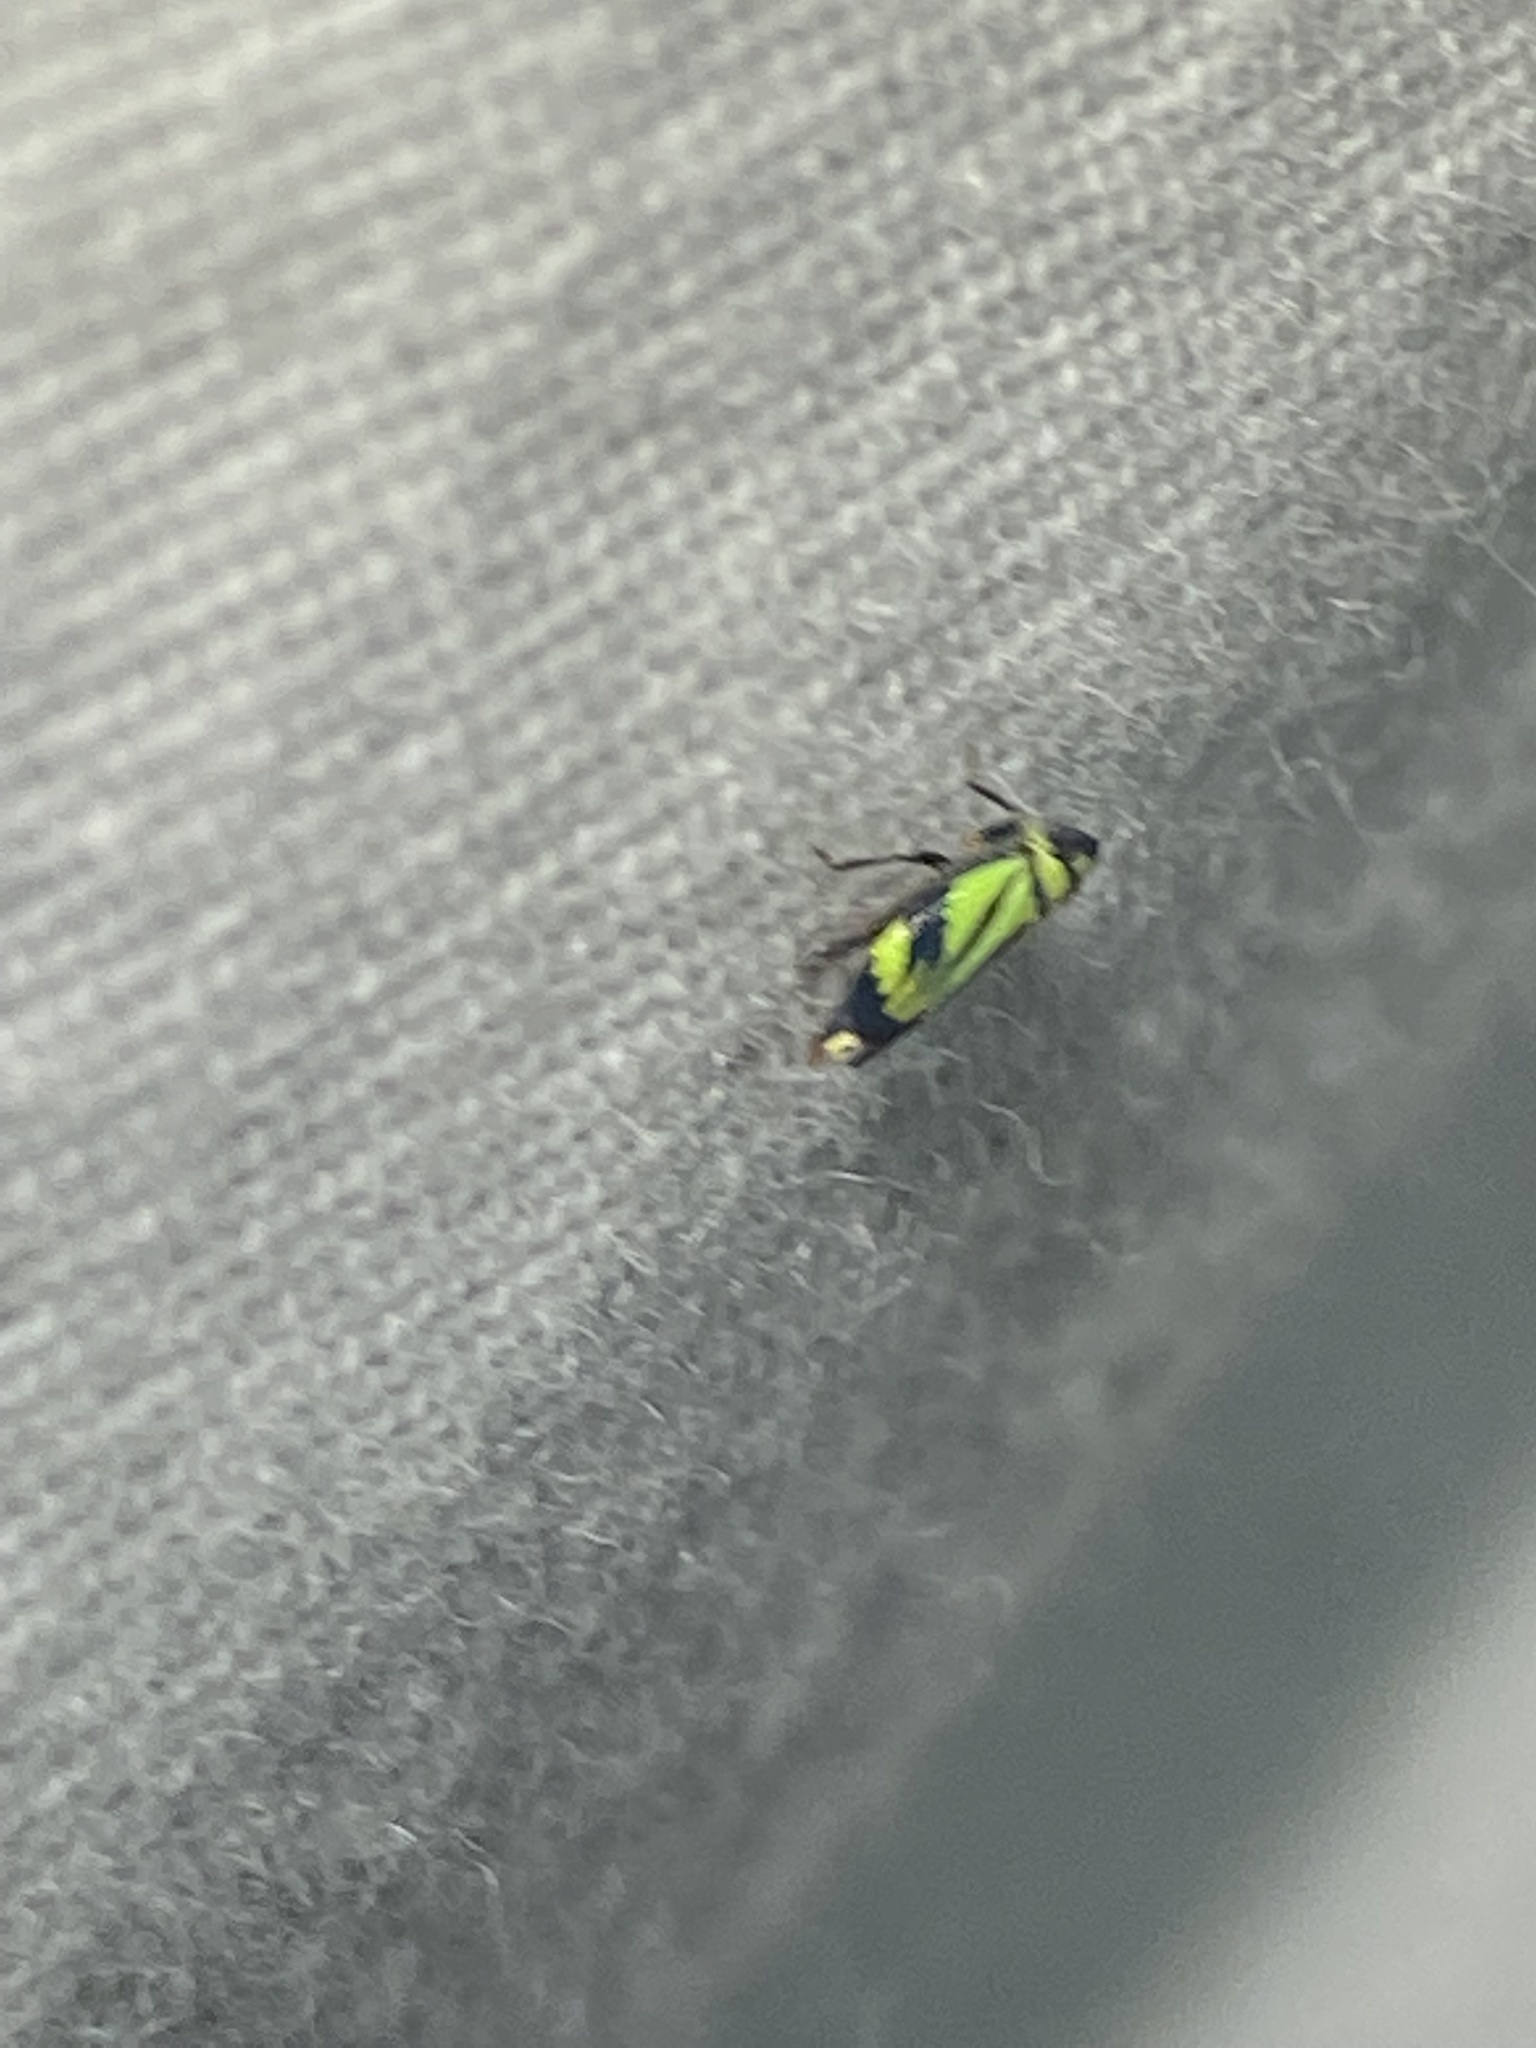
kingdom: Animalia
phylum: Arthropoda
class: Insecta
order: Hemiptera
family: Cicadellidae
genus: Stirellus
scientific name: Stirellus bicolor
